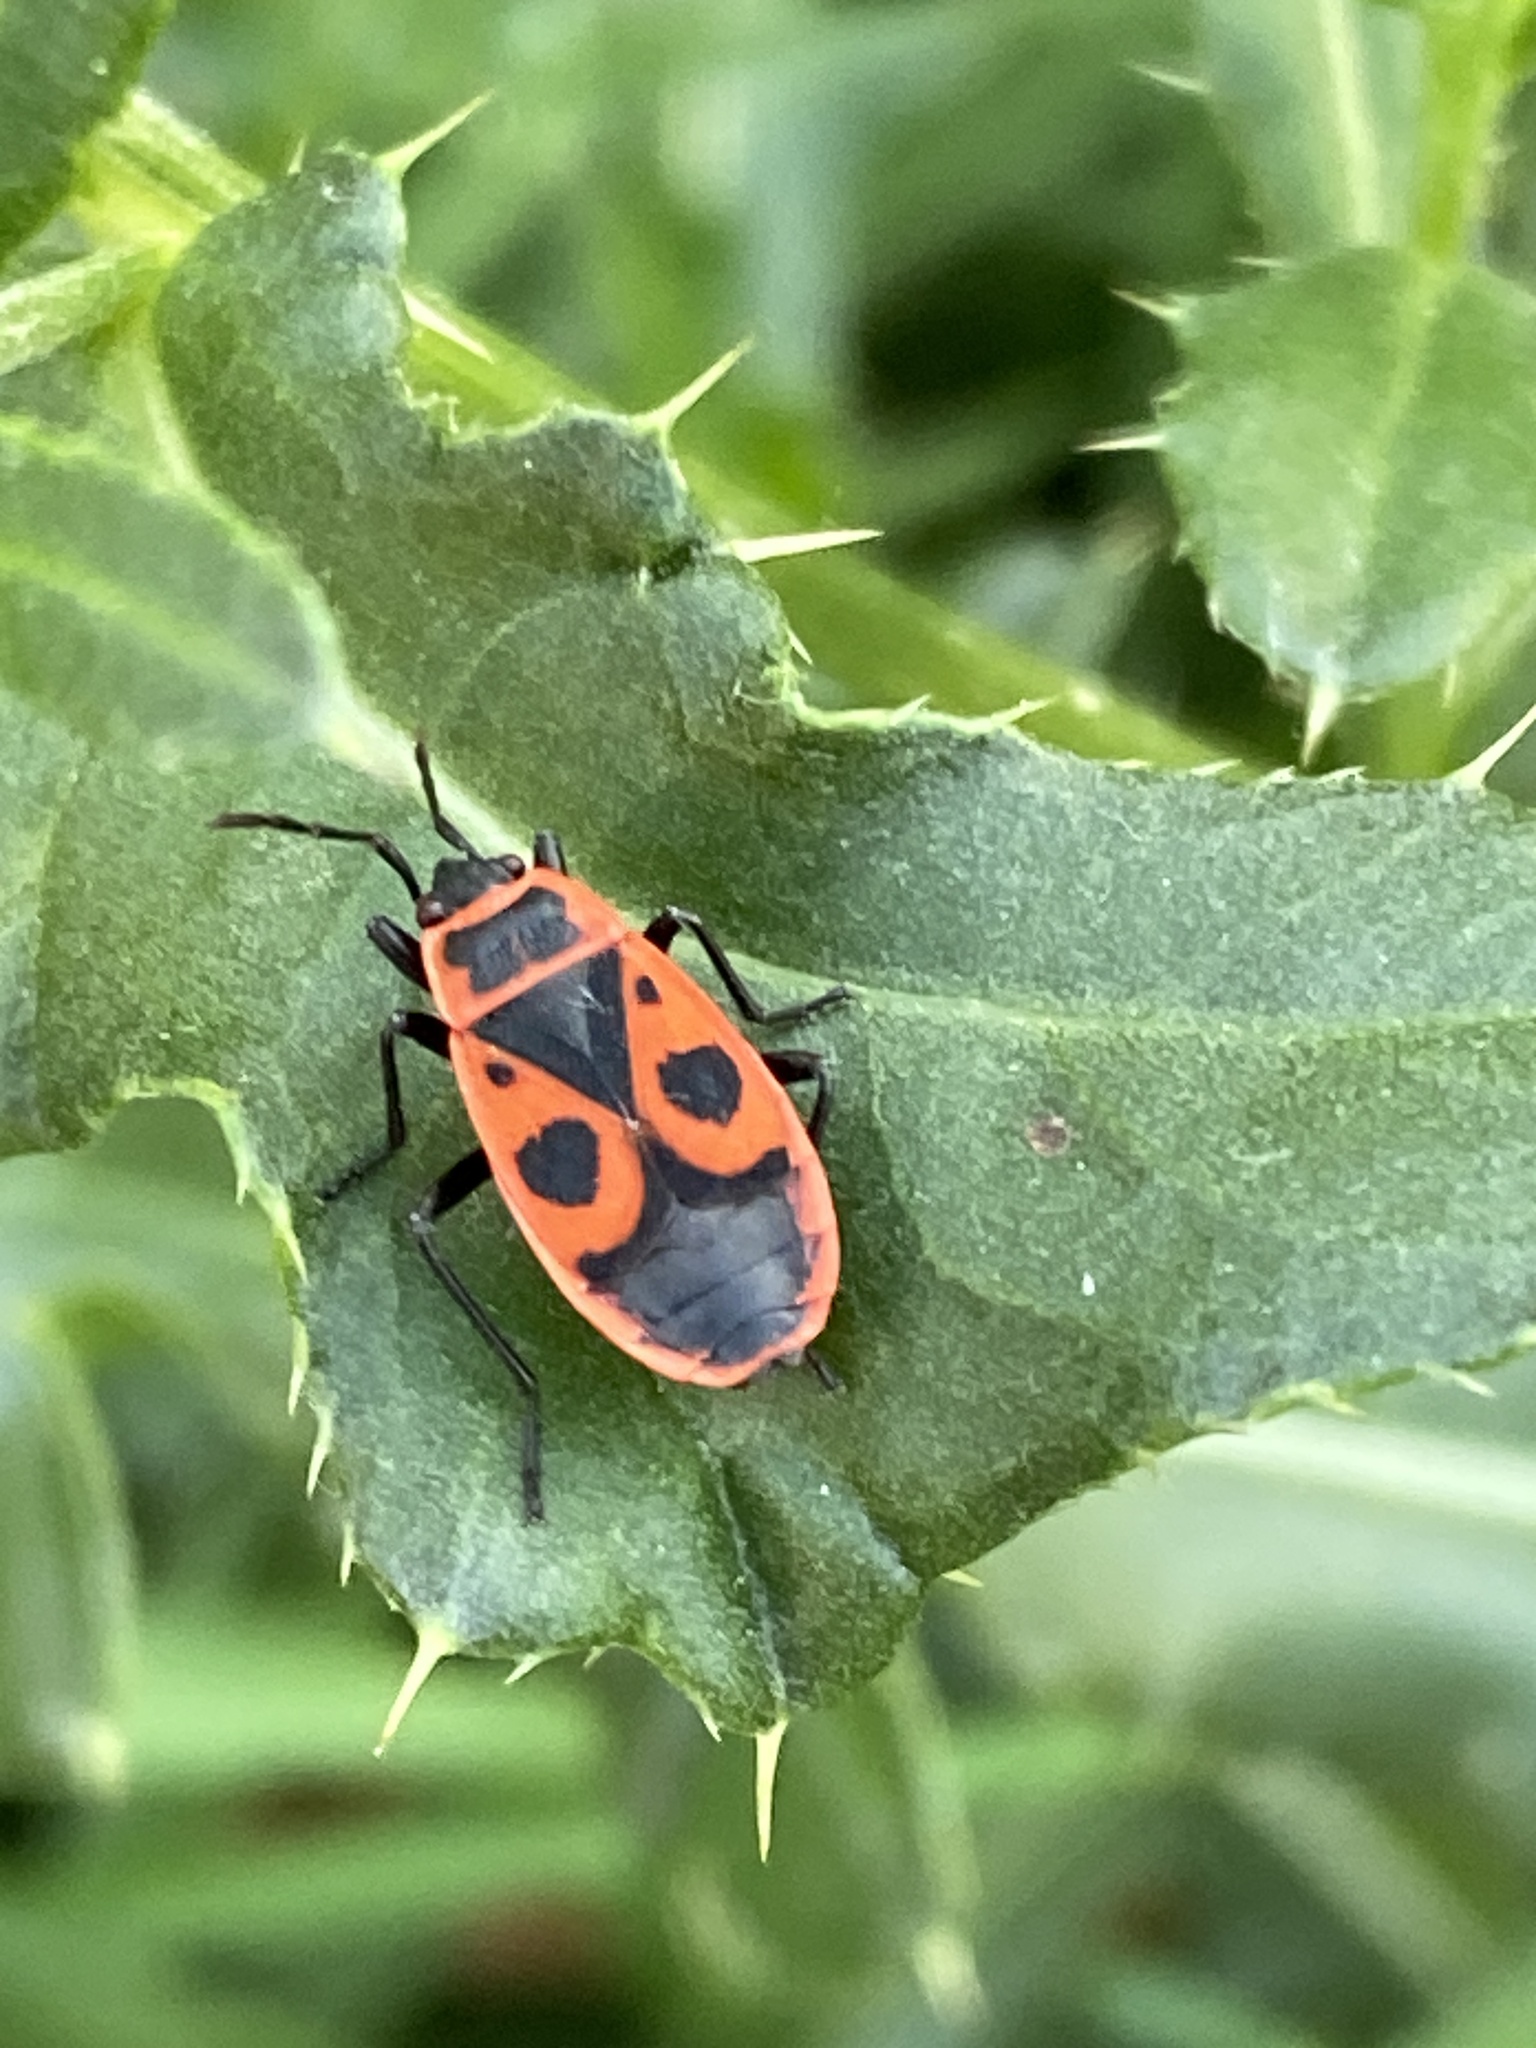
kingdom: Animalia
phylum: Arthropoda
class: Insecta
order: Hemiptera
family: Pyrrhocoridae
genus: Pyrrhocoris
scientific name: Pyrrhocoris apterus
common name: Firebug
